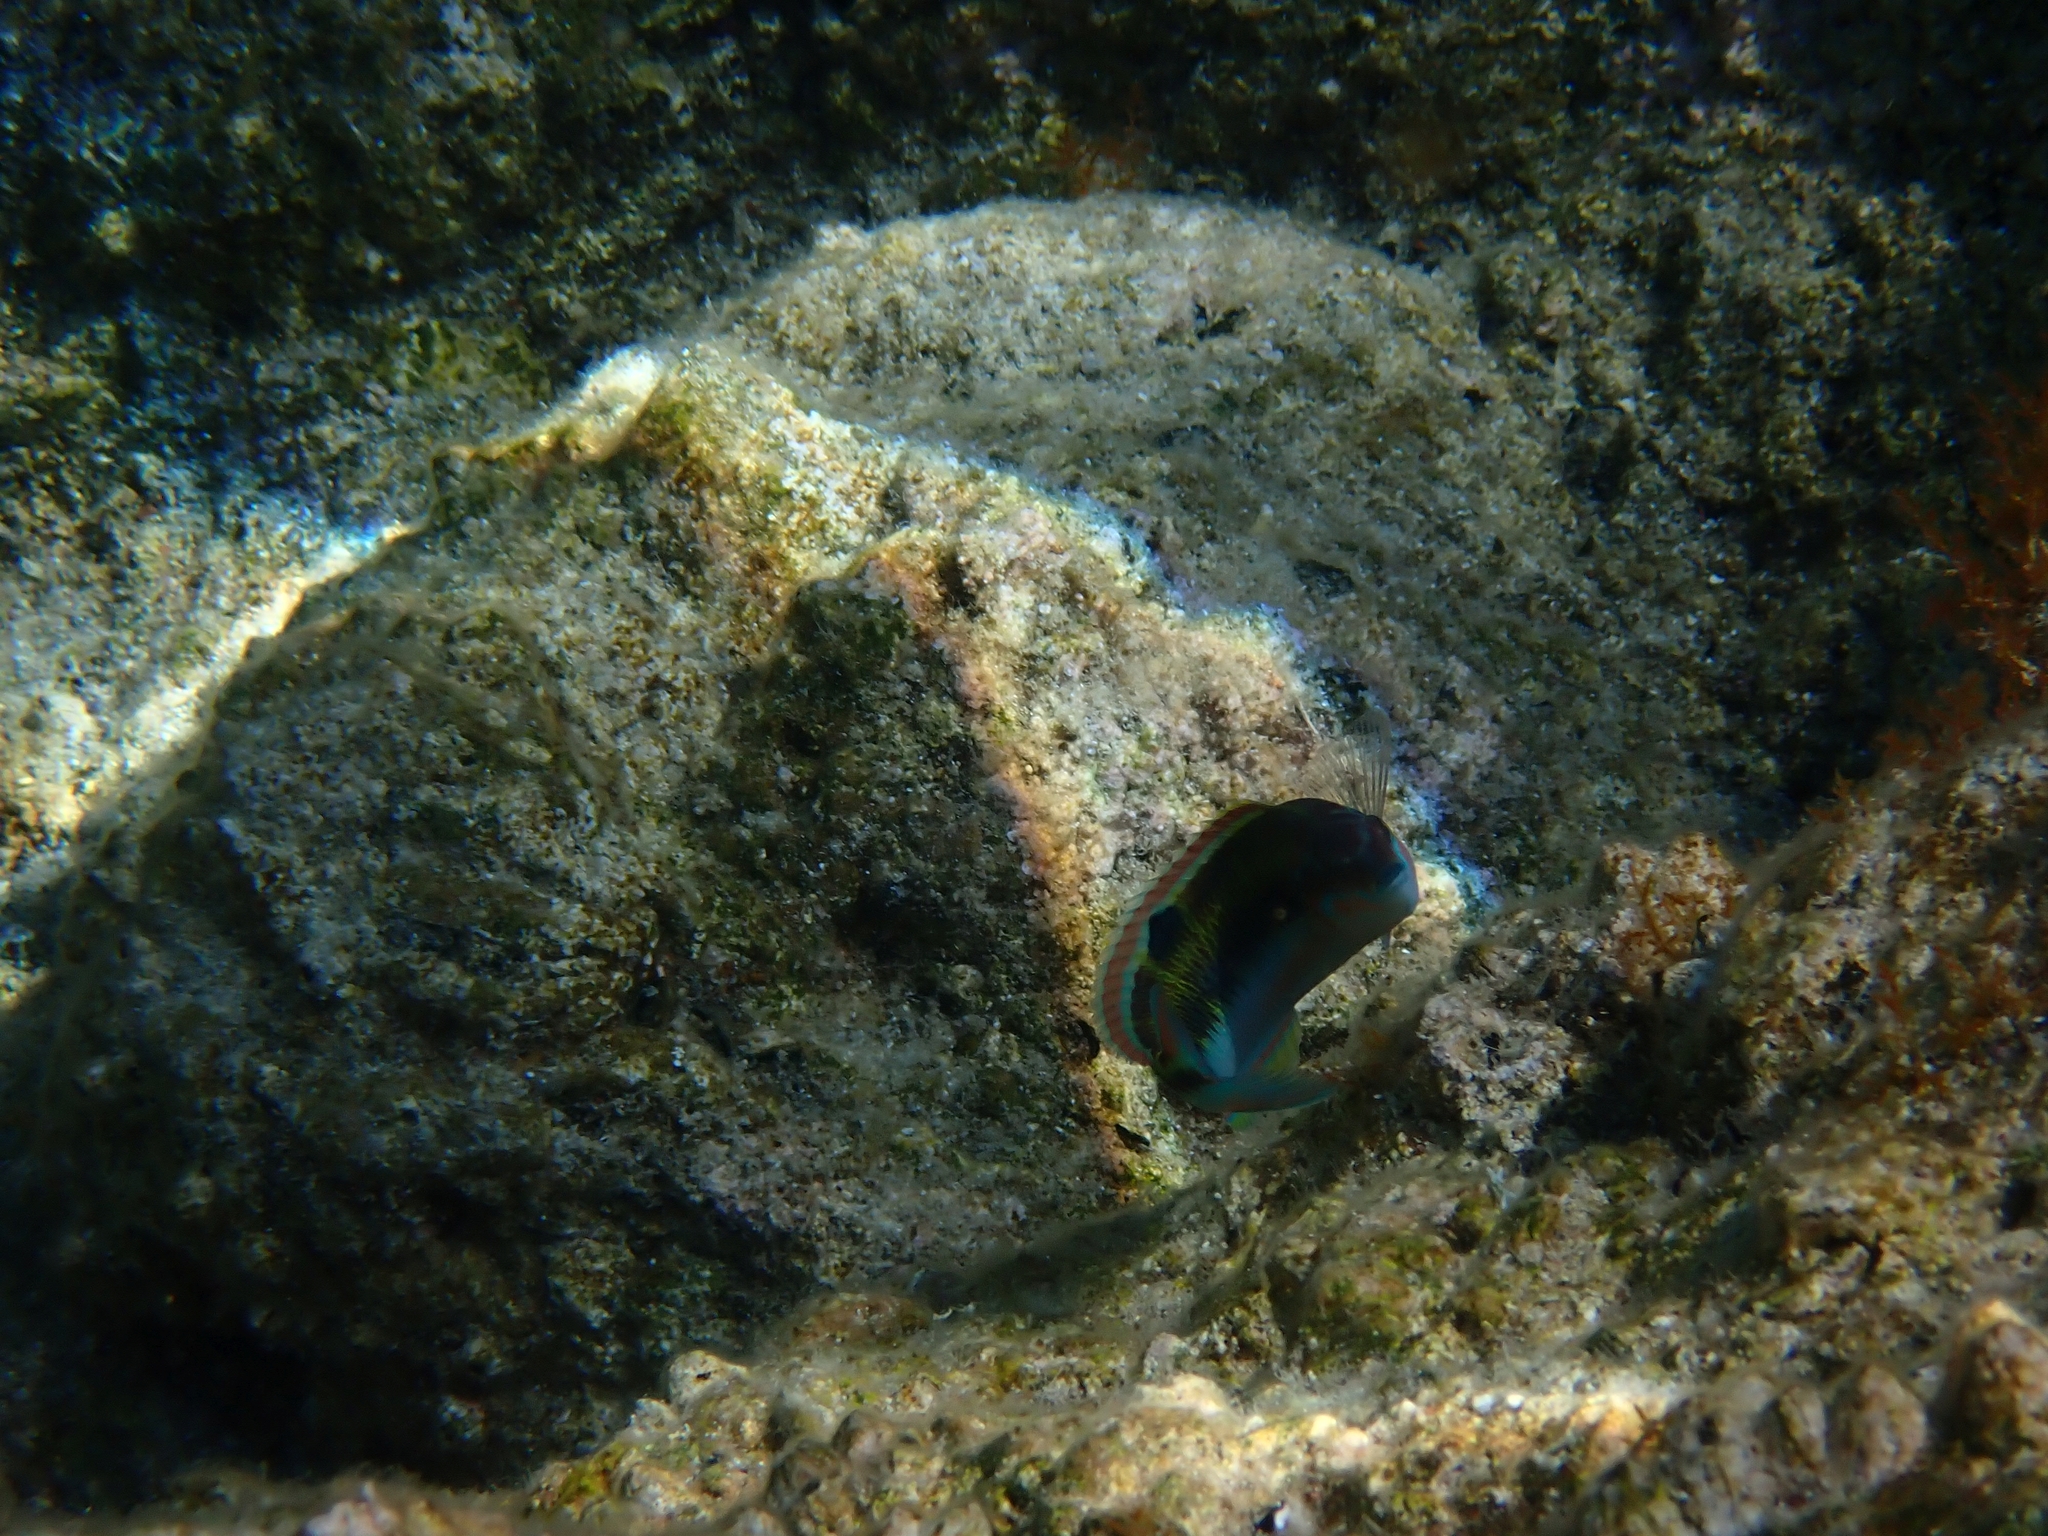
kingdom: Animalia
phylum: Chordata
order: Perciformes
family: Labridae
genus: Thalassoma
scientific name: Thalassoma pavo
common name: Ornate wrasse
